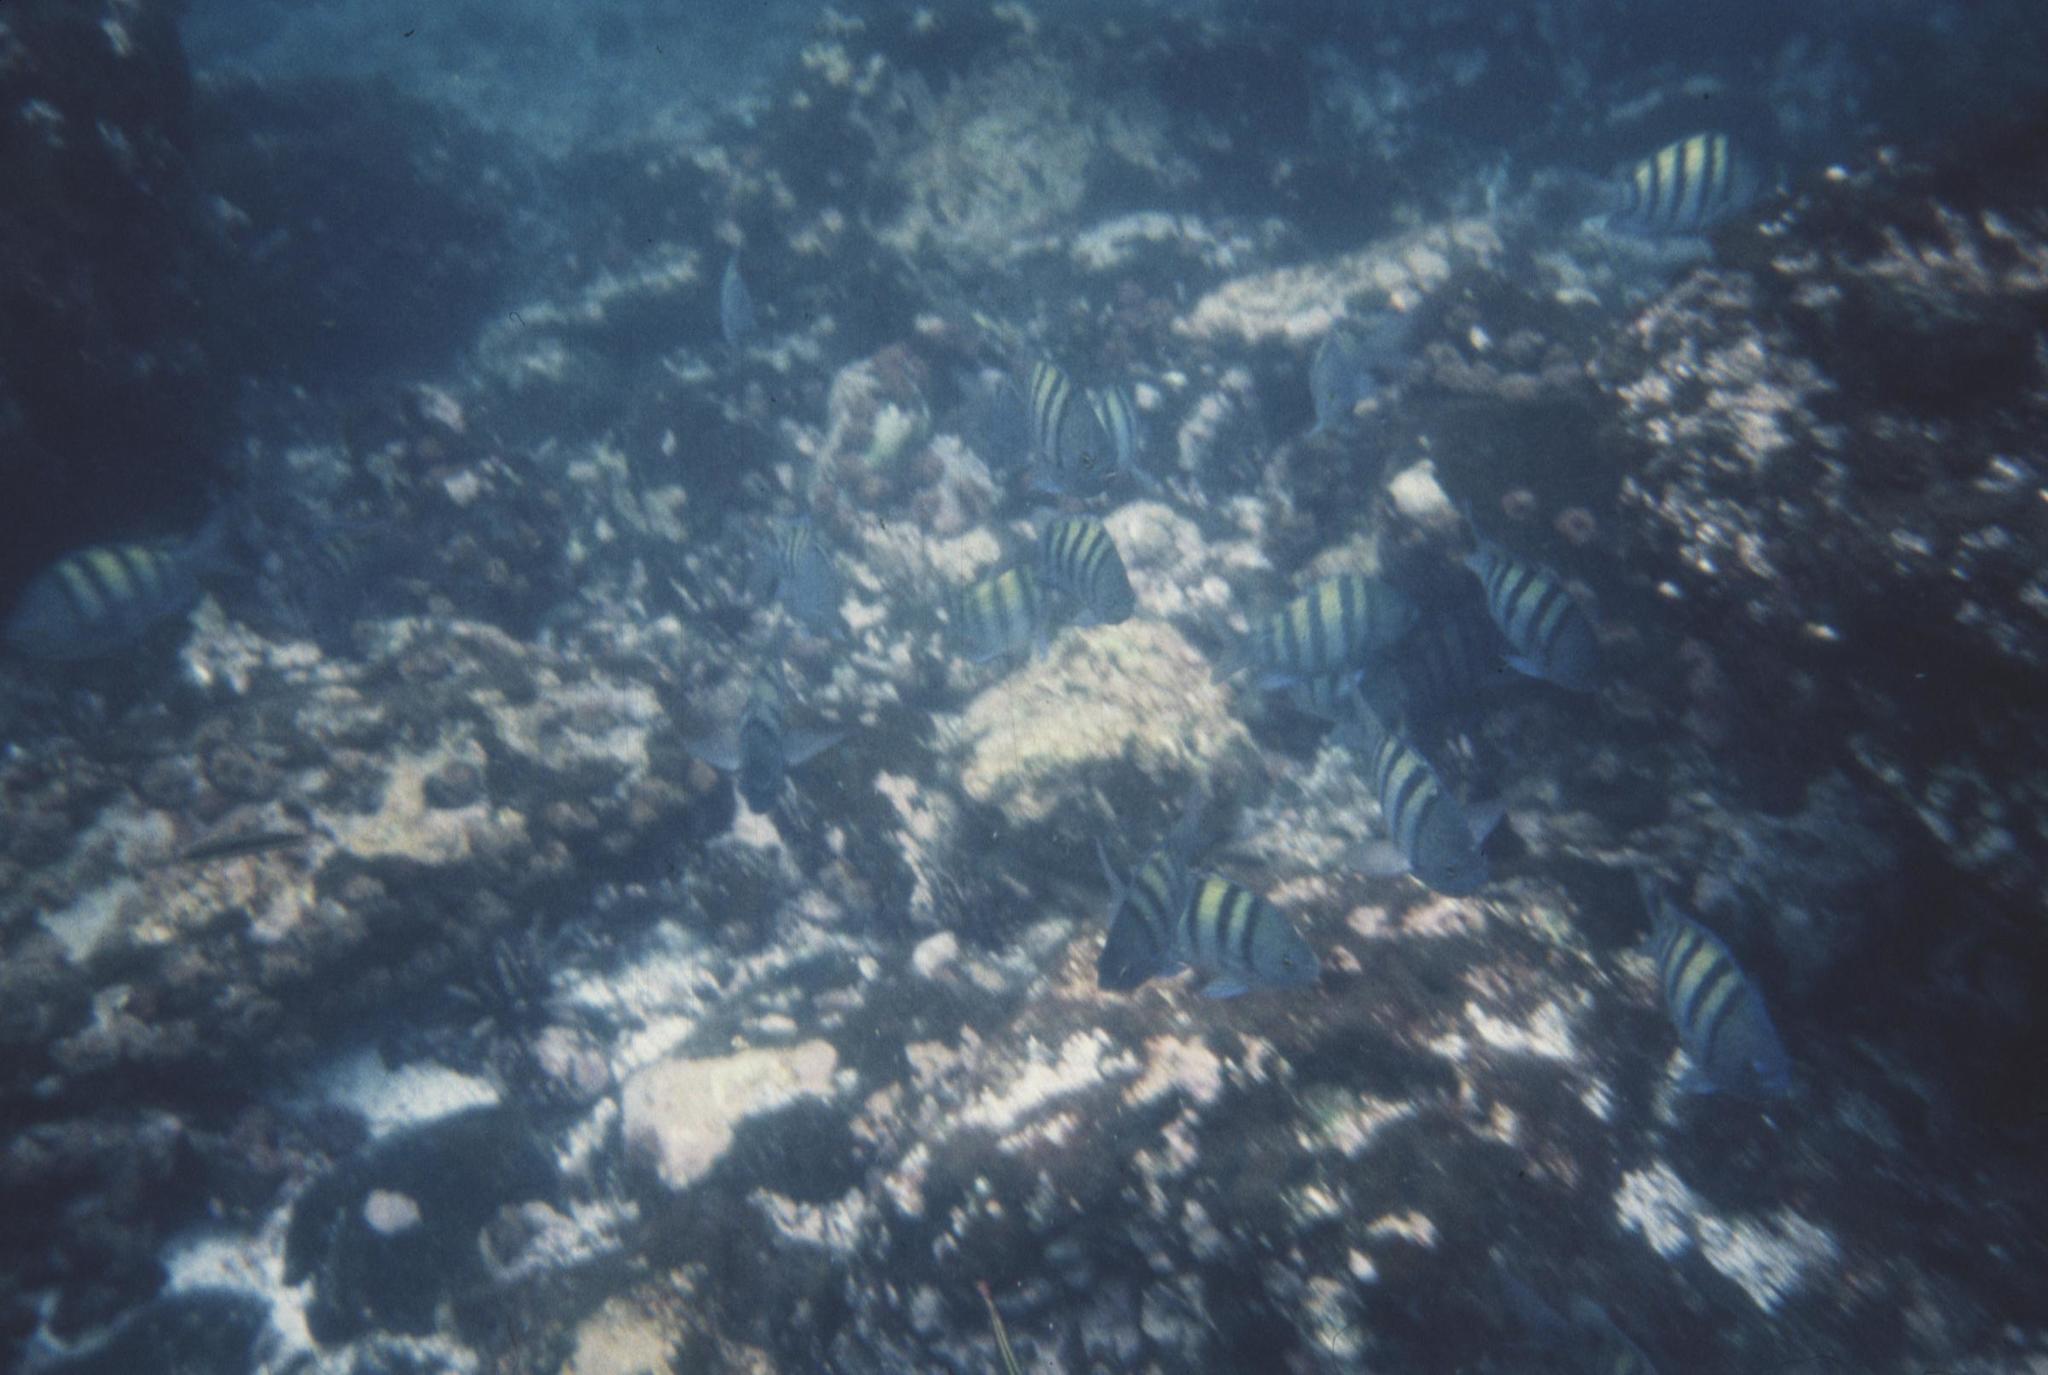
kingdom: Animalia
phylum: Chordata
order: Perciformes
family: Pomacentridae
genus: Abudefduf
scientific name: Abudefduf troschelii
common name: Panamic sergeant major
